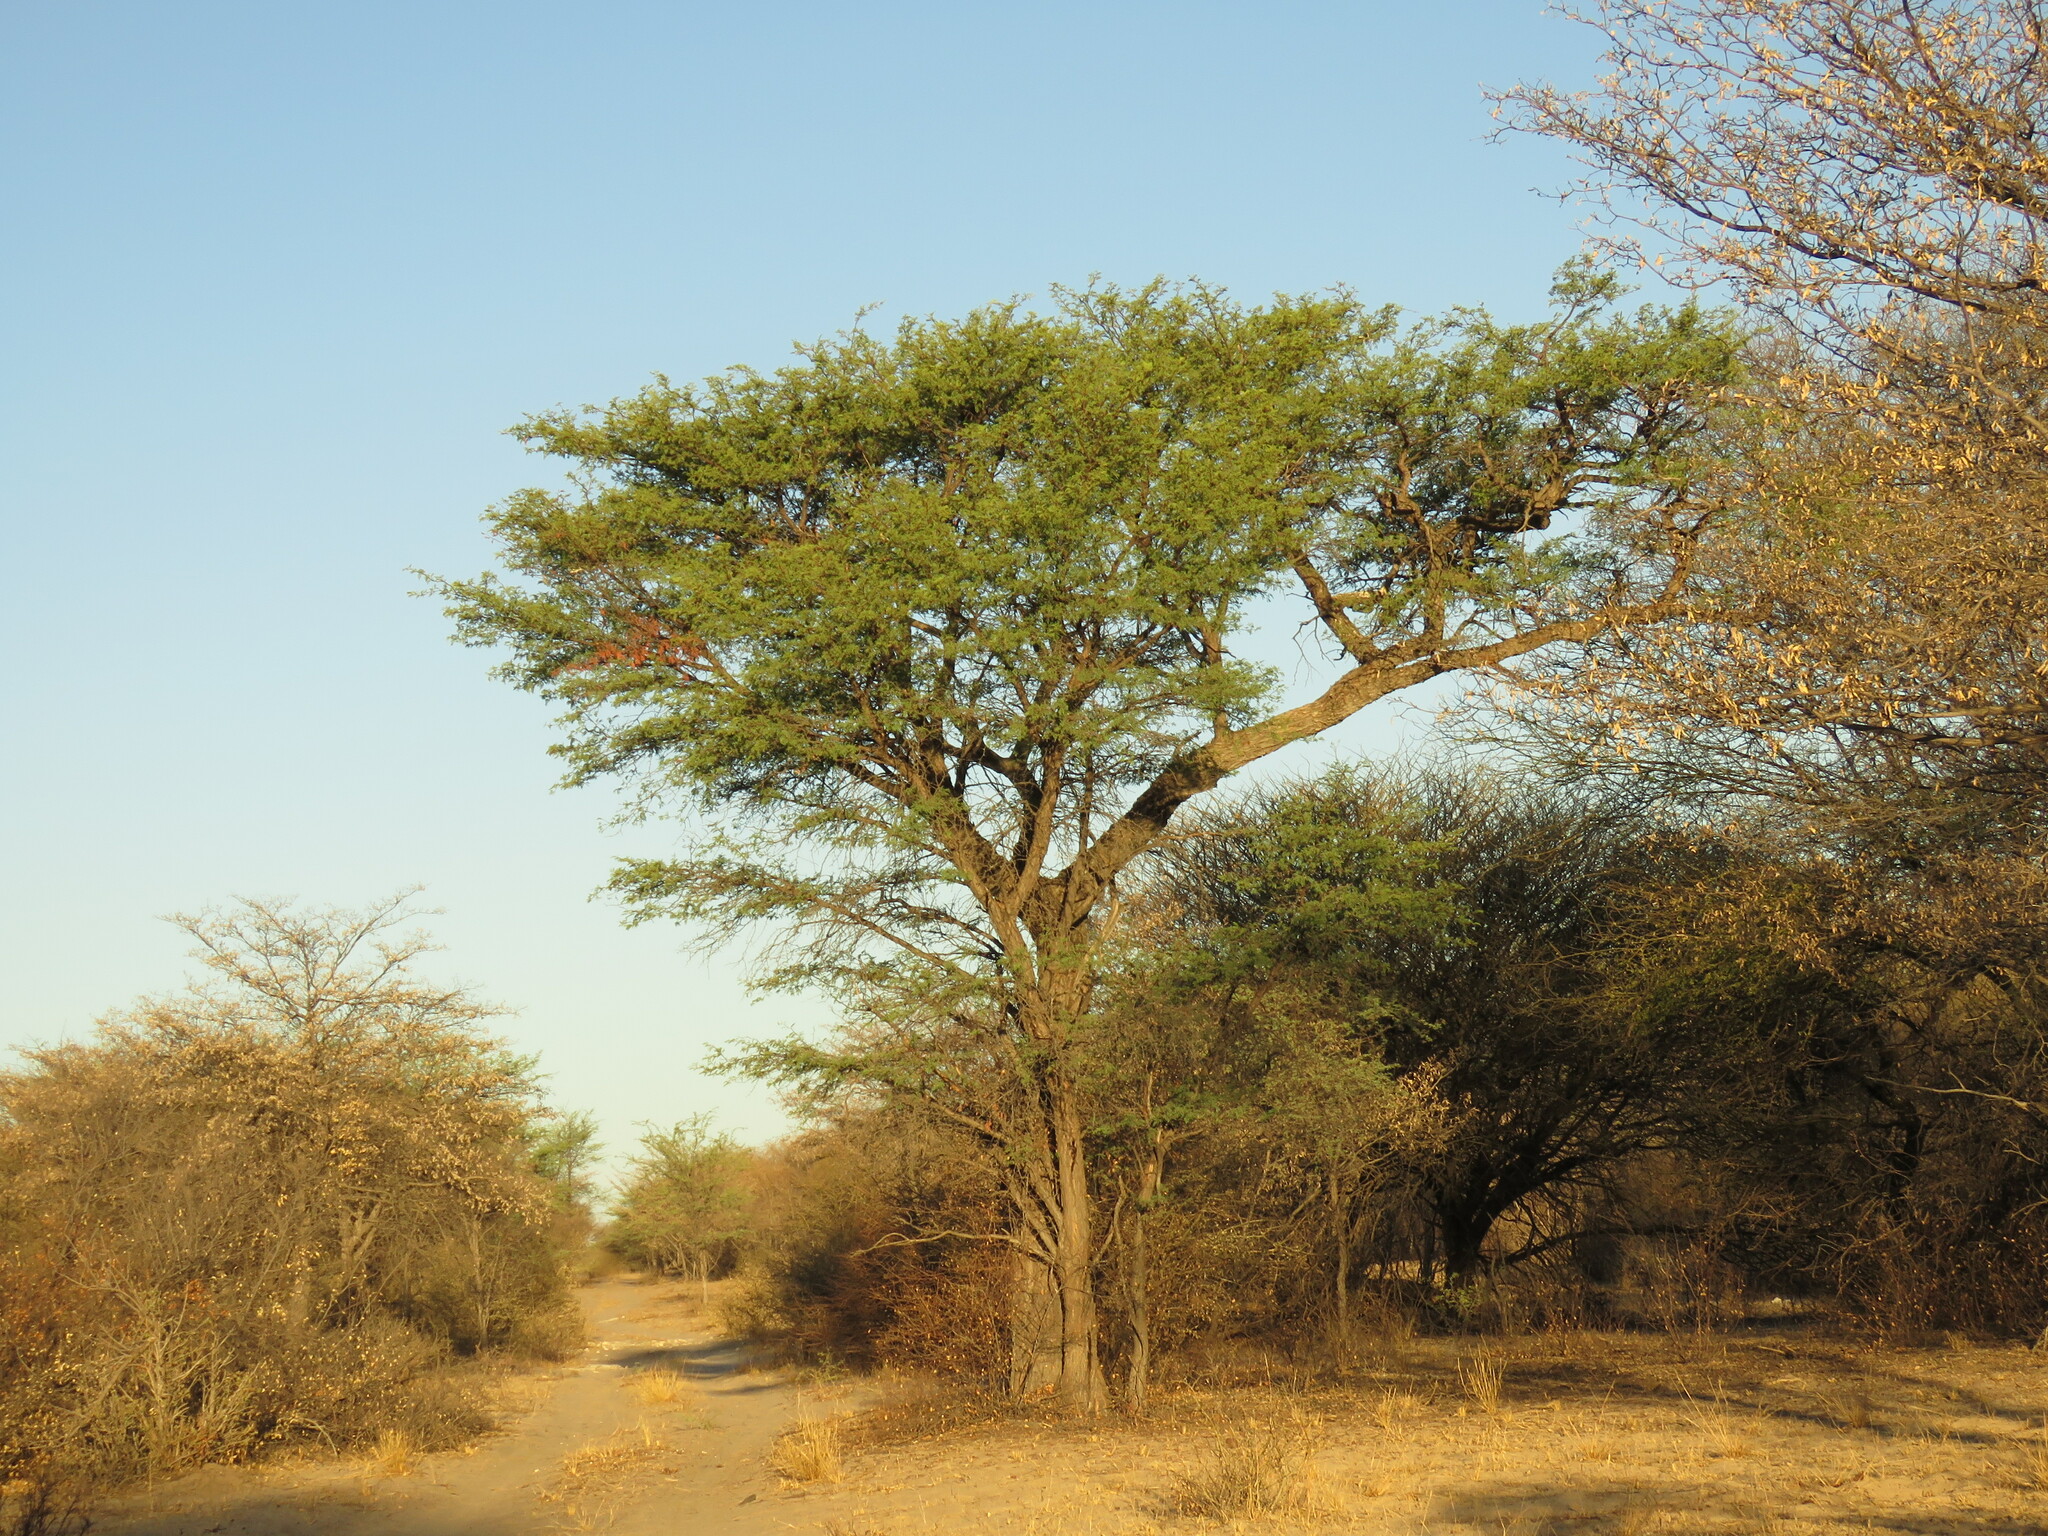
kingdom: Plantae
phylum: Tracheophyta
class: Magnoliopsida
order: Fabales
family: Fabaceae
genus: Vachellia
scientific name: Vachellia erioloba
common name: Camel thorn
